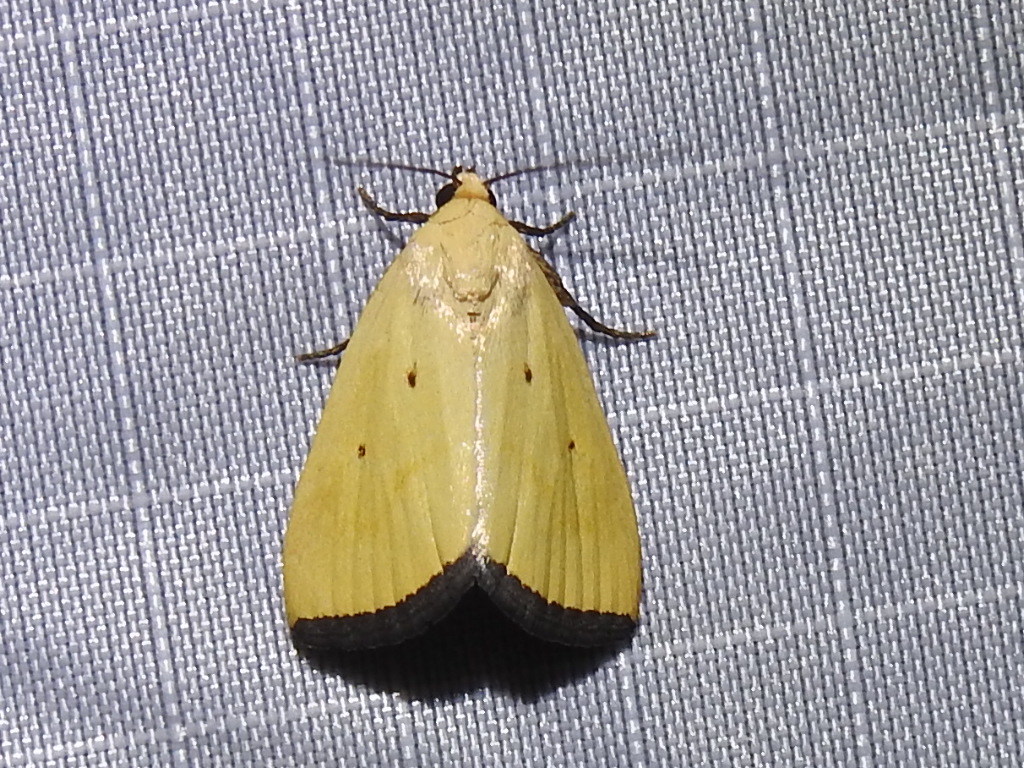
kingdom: Animalia
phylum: Arthropoda
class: Insecta
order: Lepidoptera
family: Noctuidae
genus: Marimatha
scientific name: Marimatha nigrofimbria
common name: Black-bordered lemon moth
